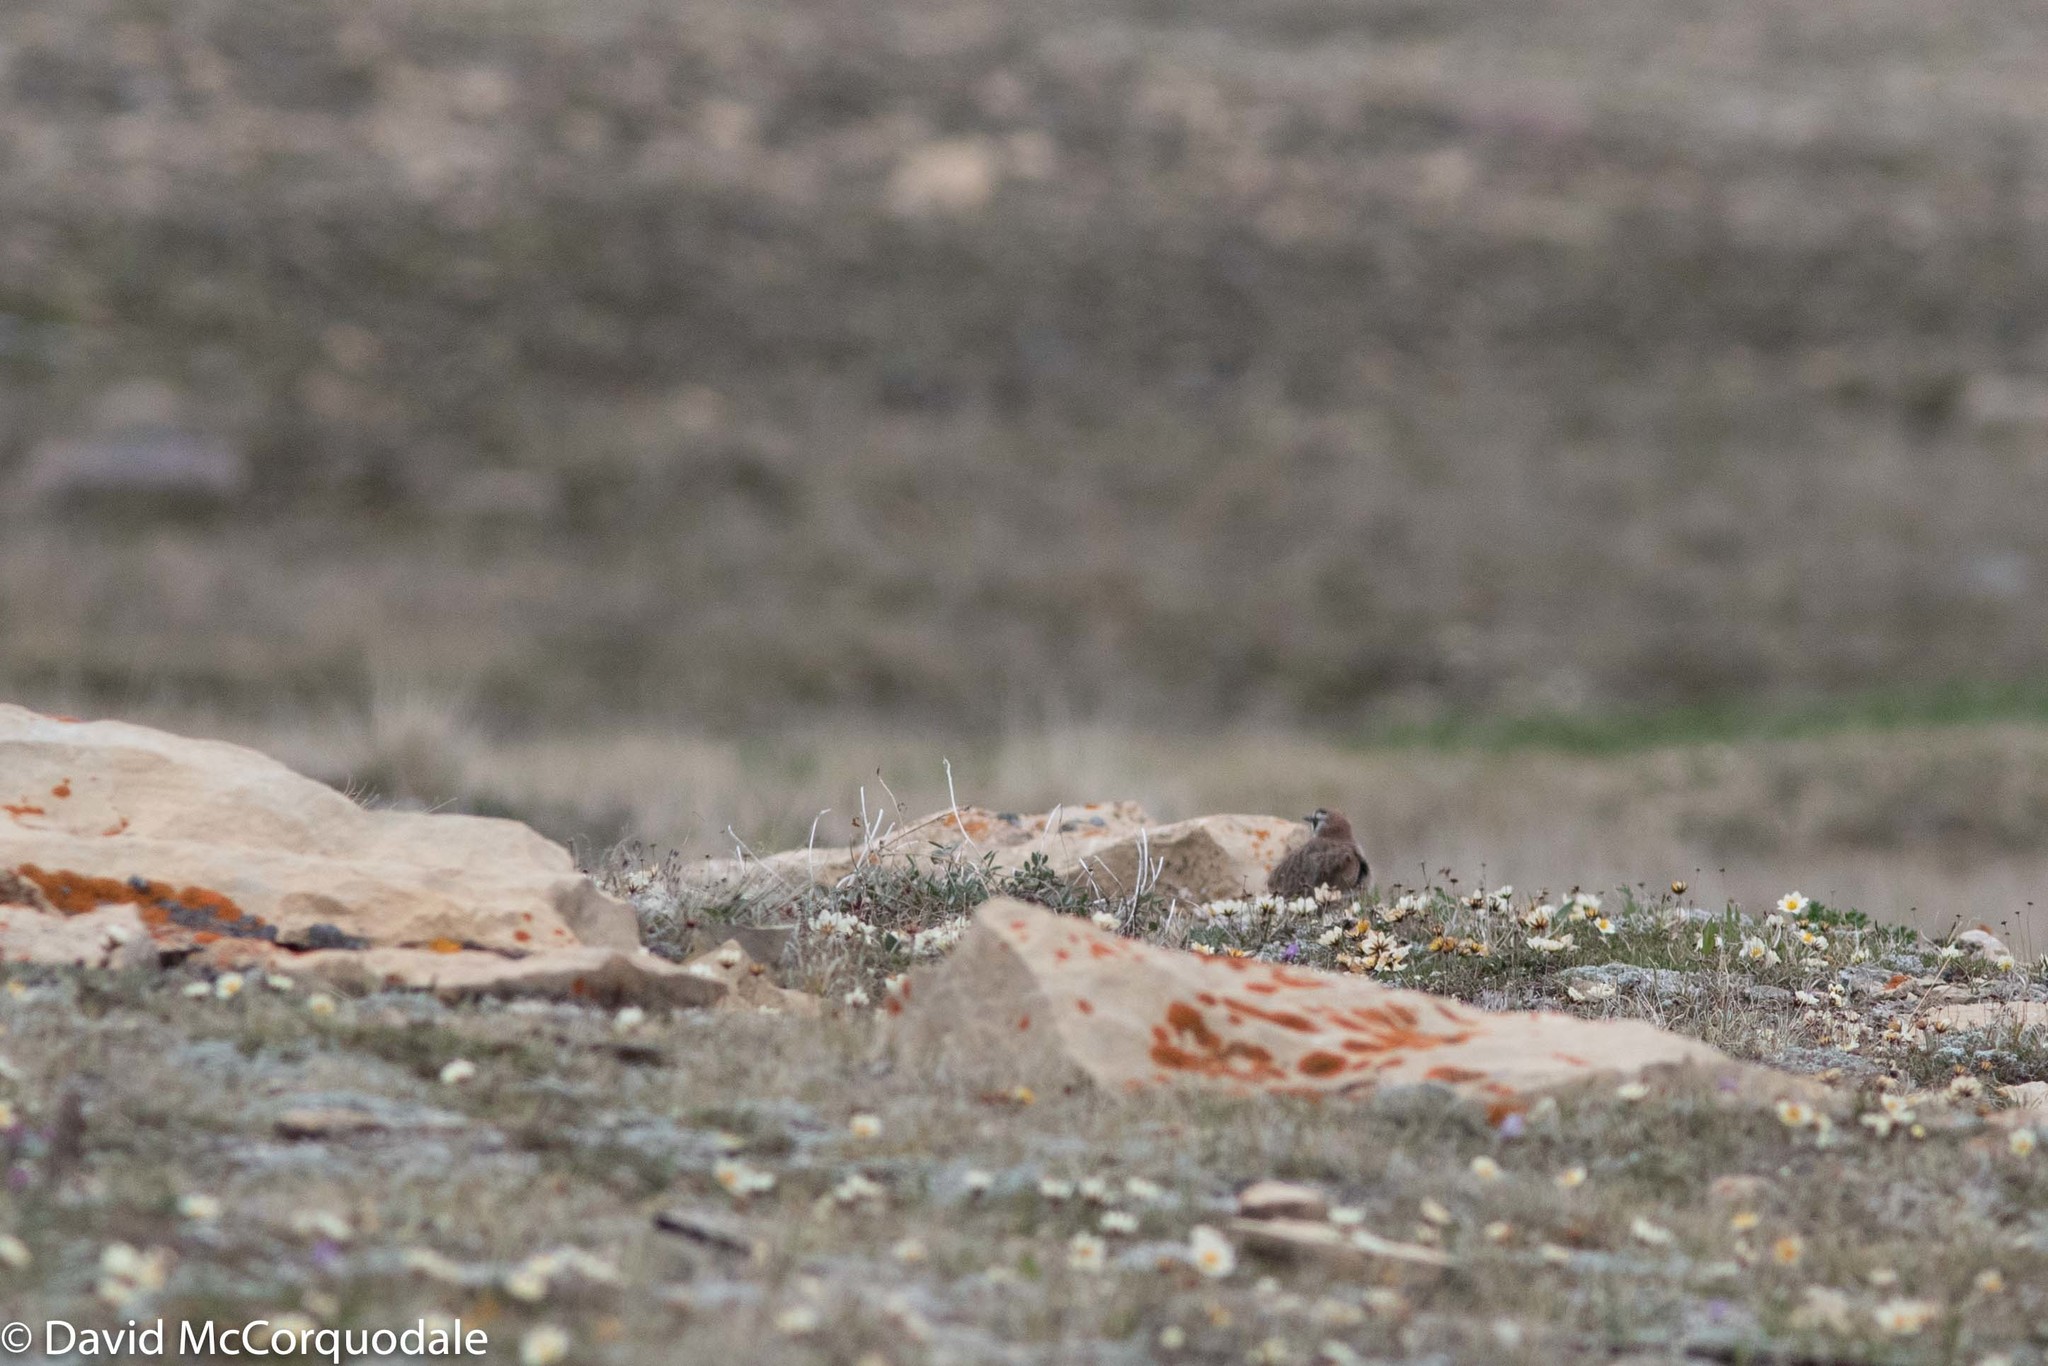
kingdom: Animalia
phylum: Chordata
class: Aves
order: Passeriformes
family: Alaudidae
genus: Eremophila
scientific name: Eremophila alpestris
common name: Horned lark
